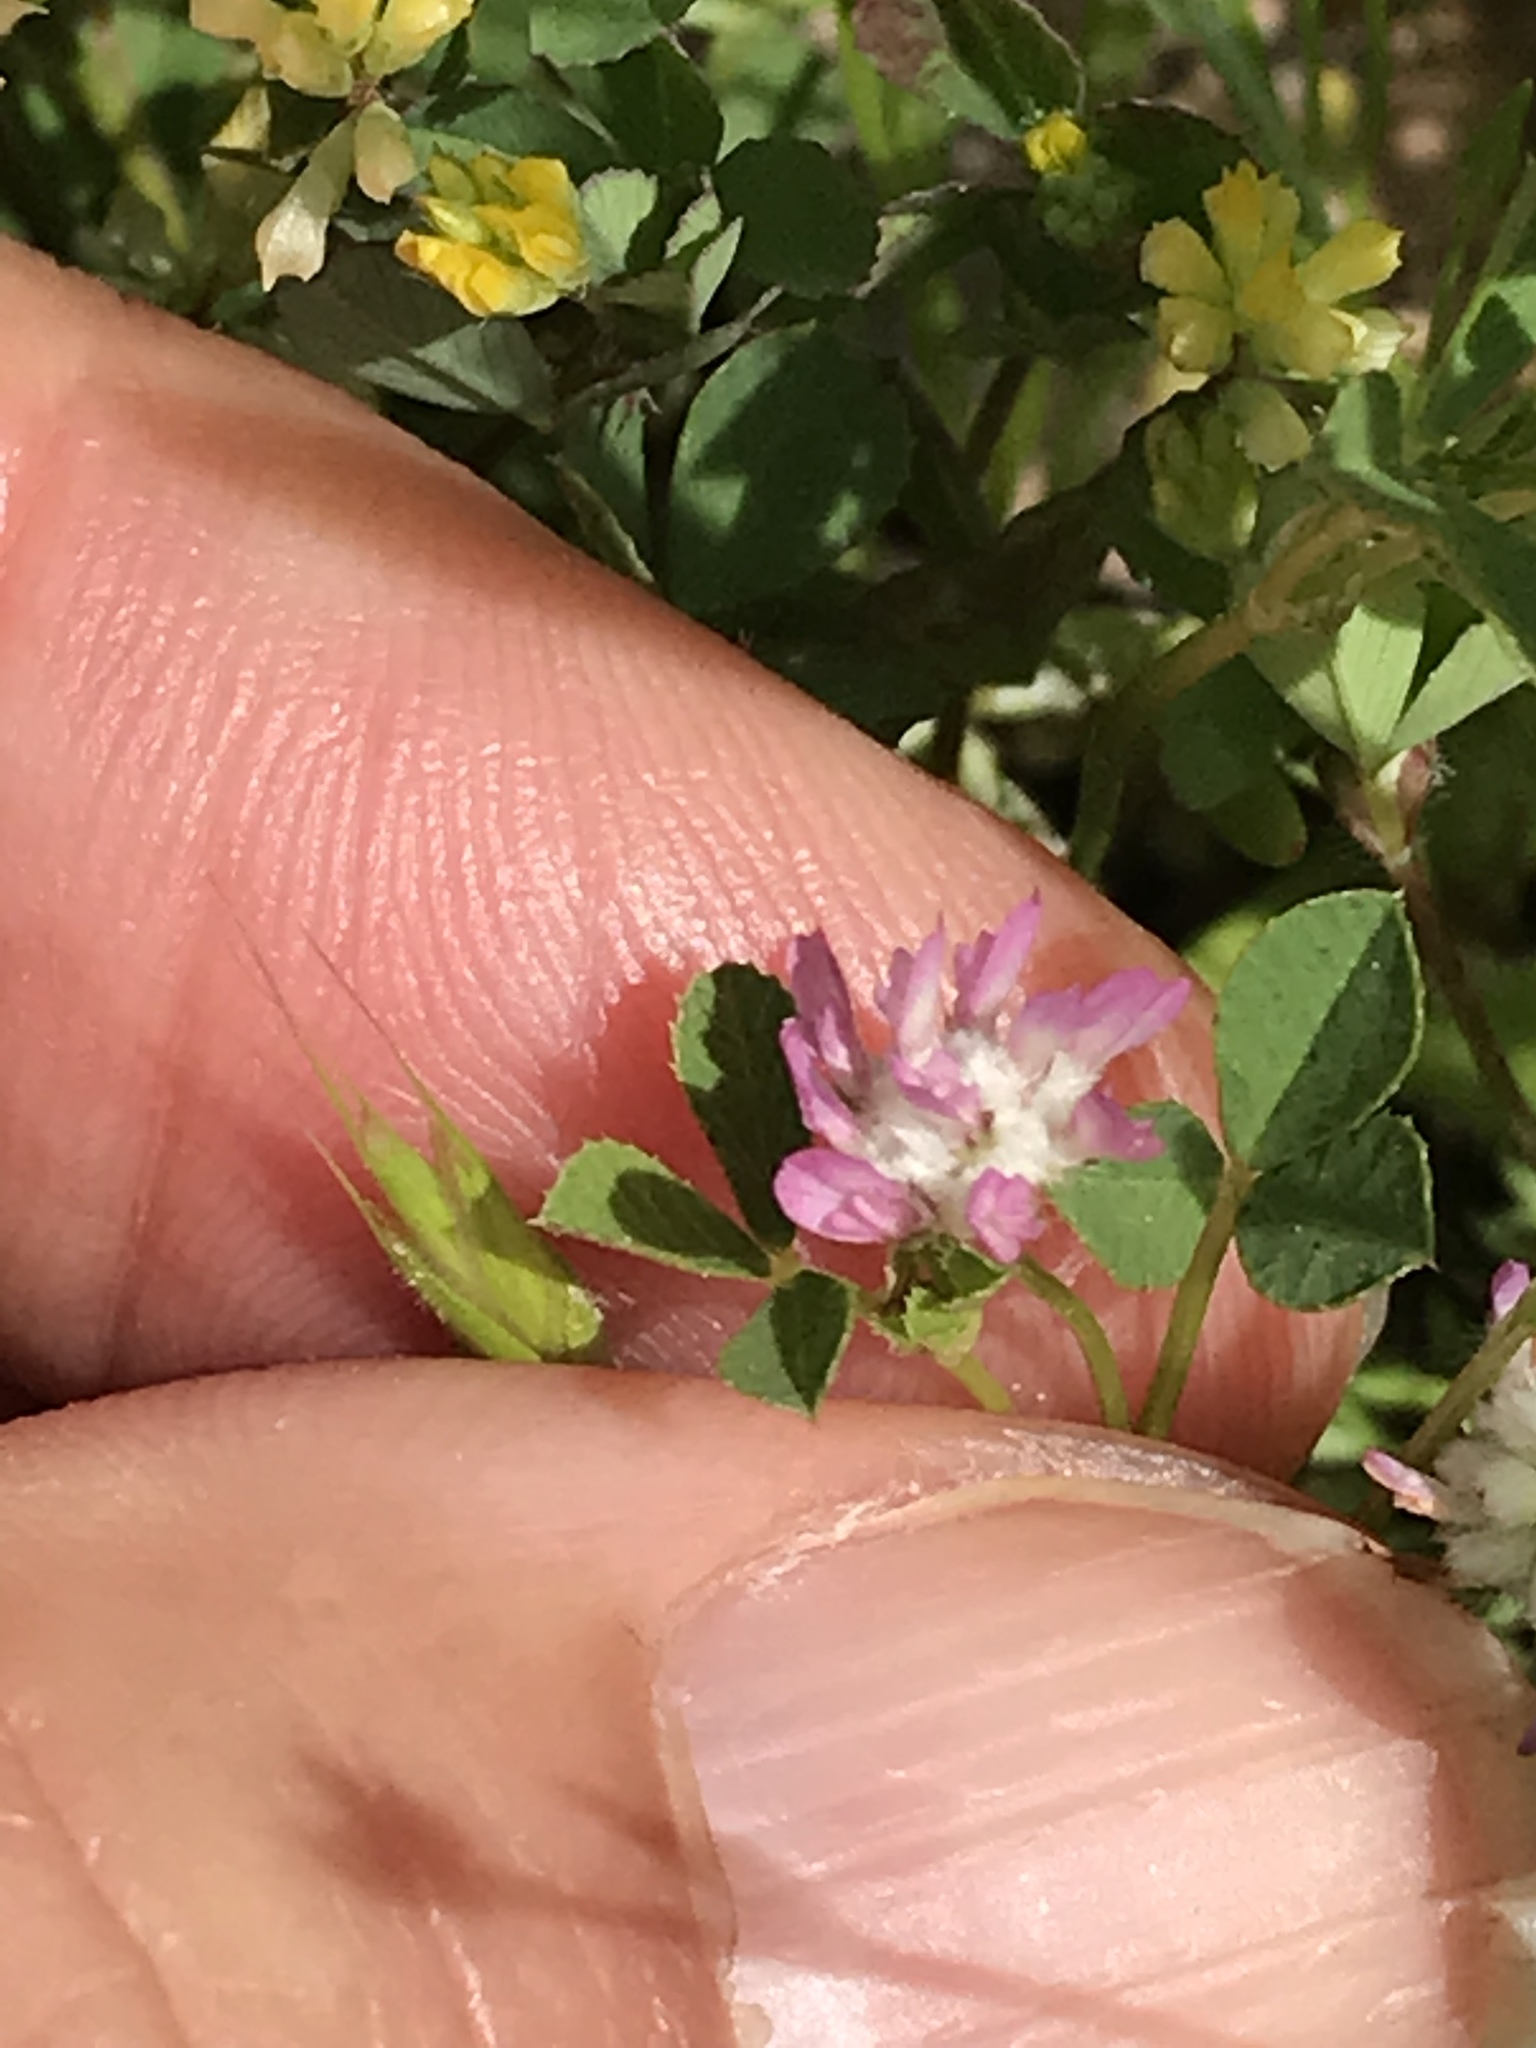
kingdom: Plantae
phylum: Tracheophyta
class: Magnoliopsida
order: Fabales
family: Fabaceae
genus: Trifolium
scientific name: Trifolium tomentosum
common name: Woolly clover
